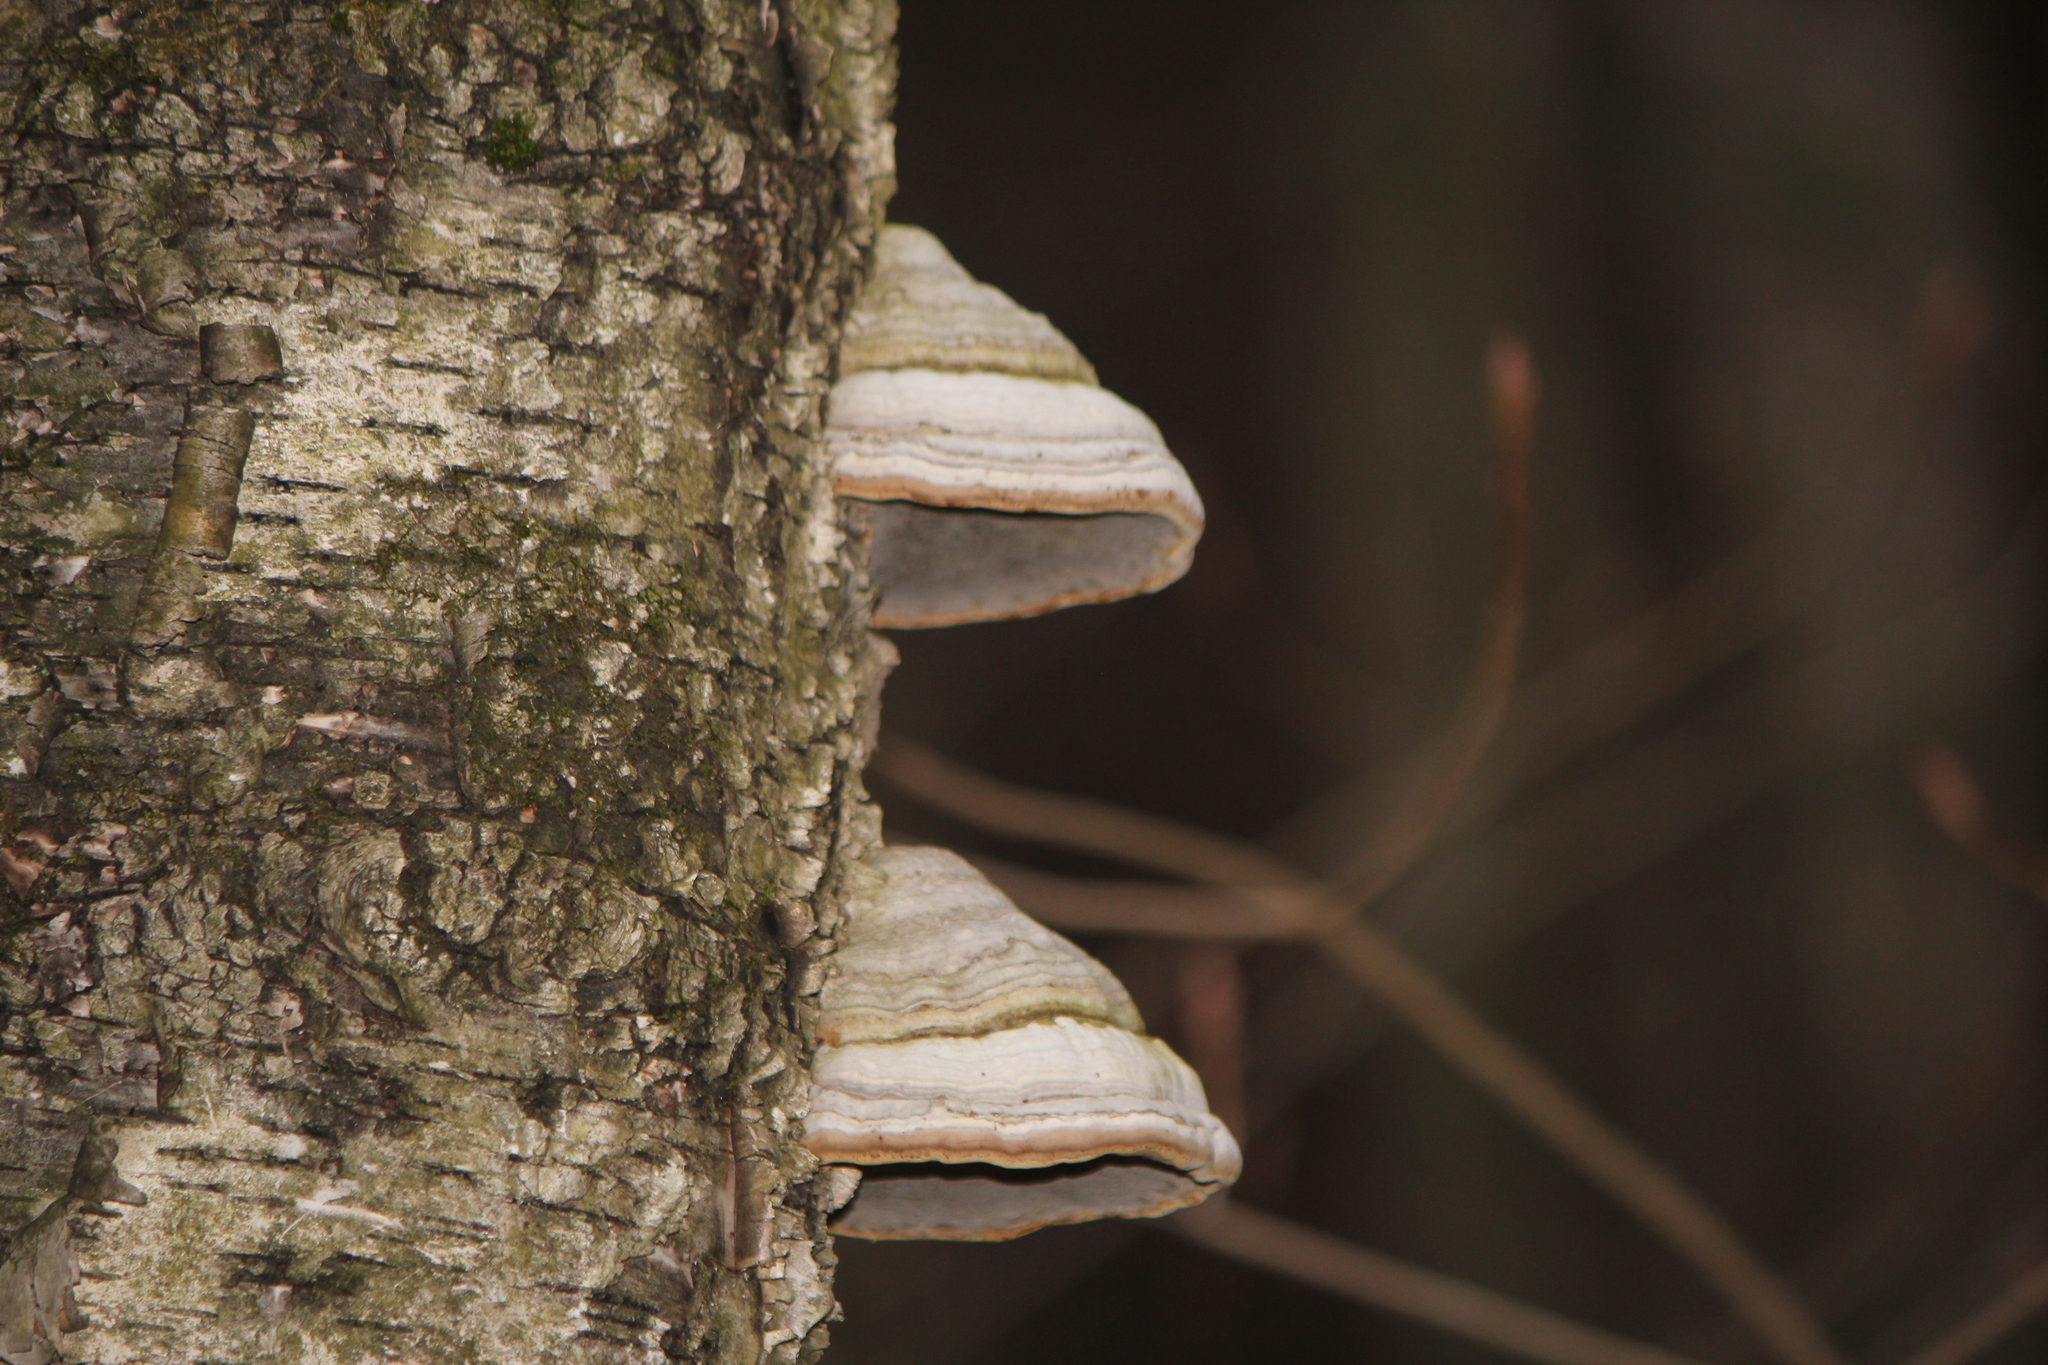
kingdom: Fungi
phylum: Basidiomycota
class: Agaricomycetes
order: Polyporales
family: Polyporaceae
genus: Fomes
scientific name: Fomes fomentarius
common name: Hoof fungus
